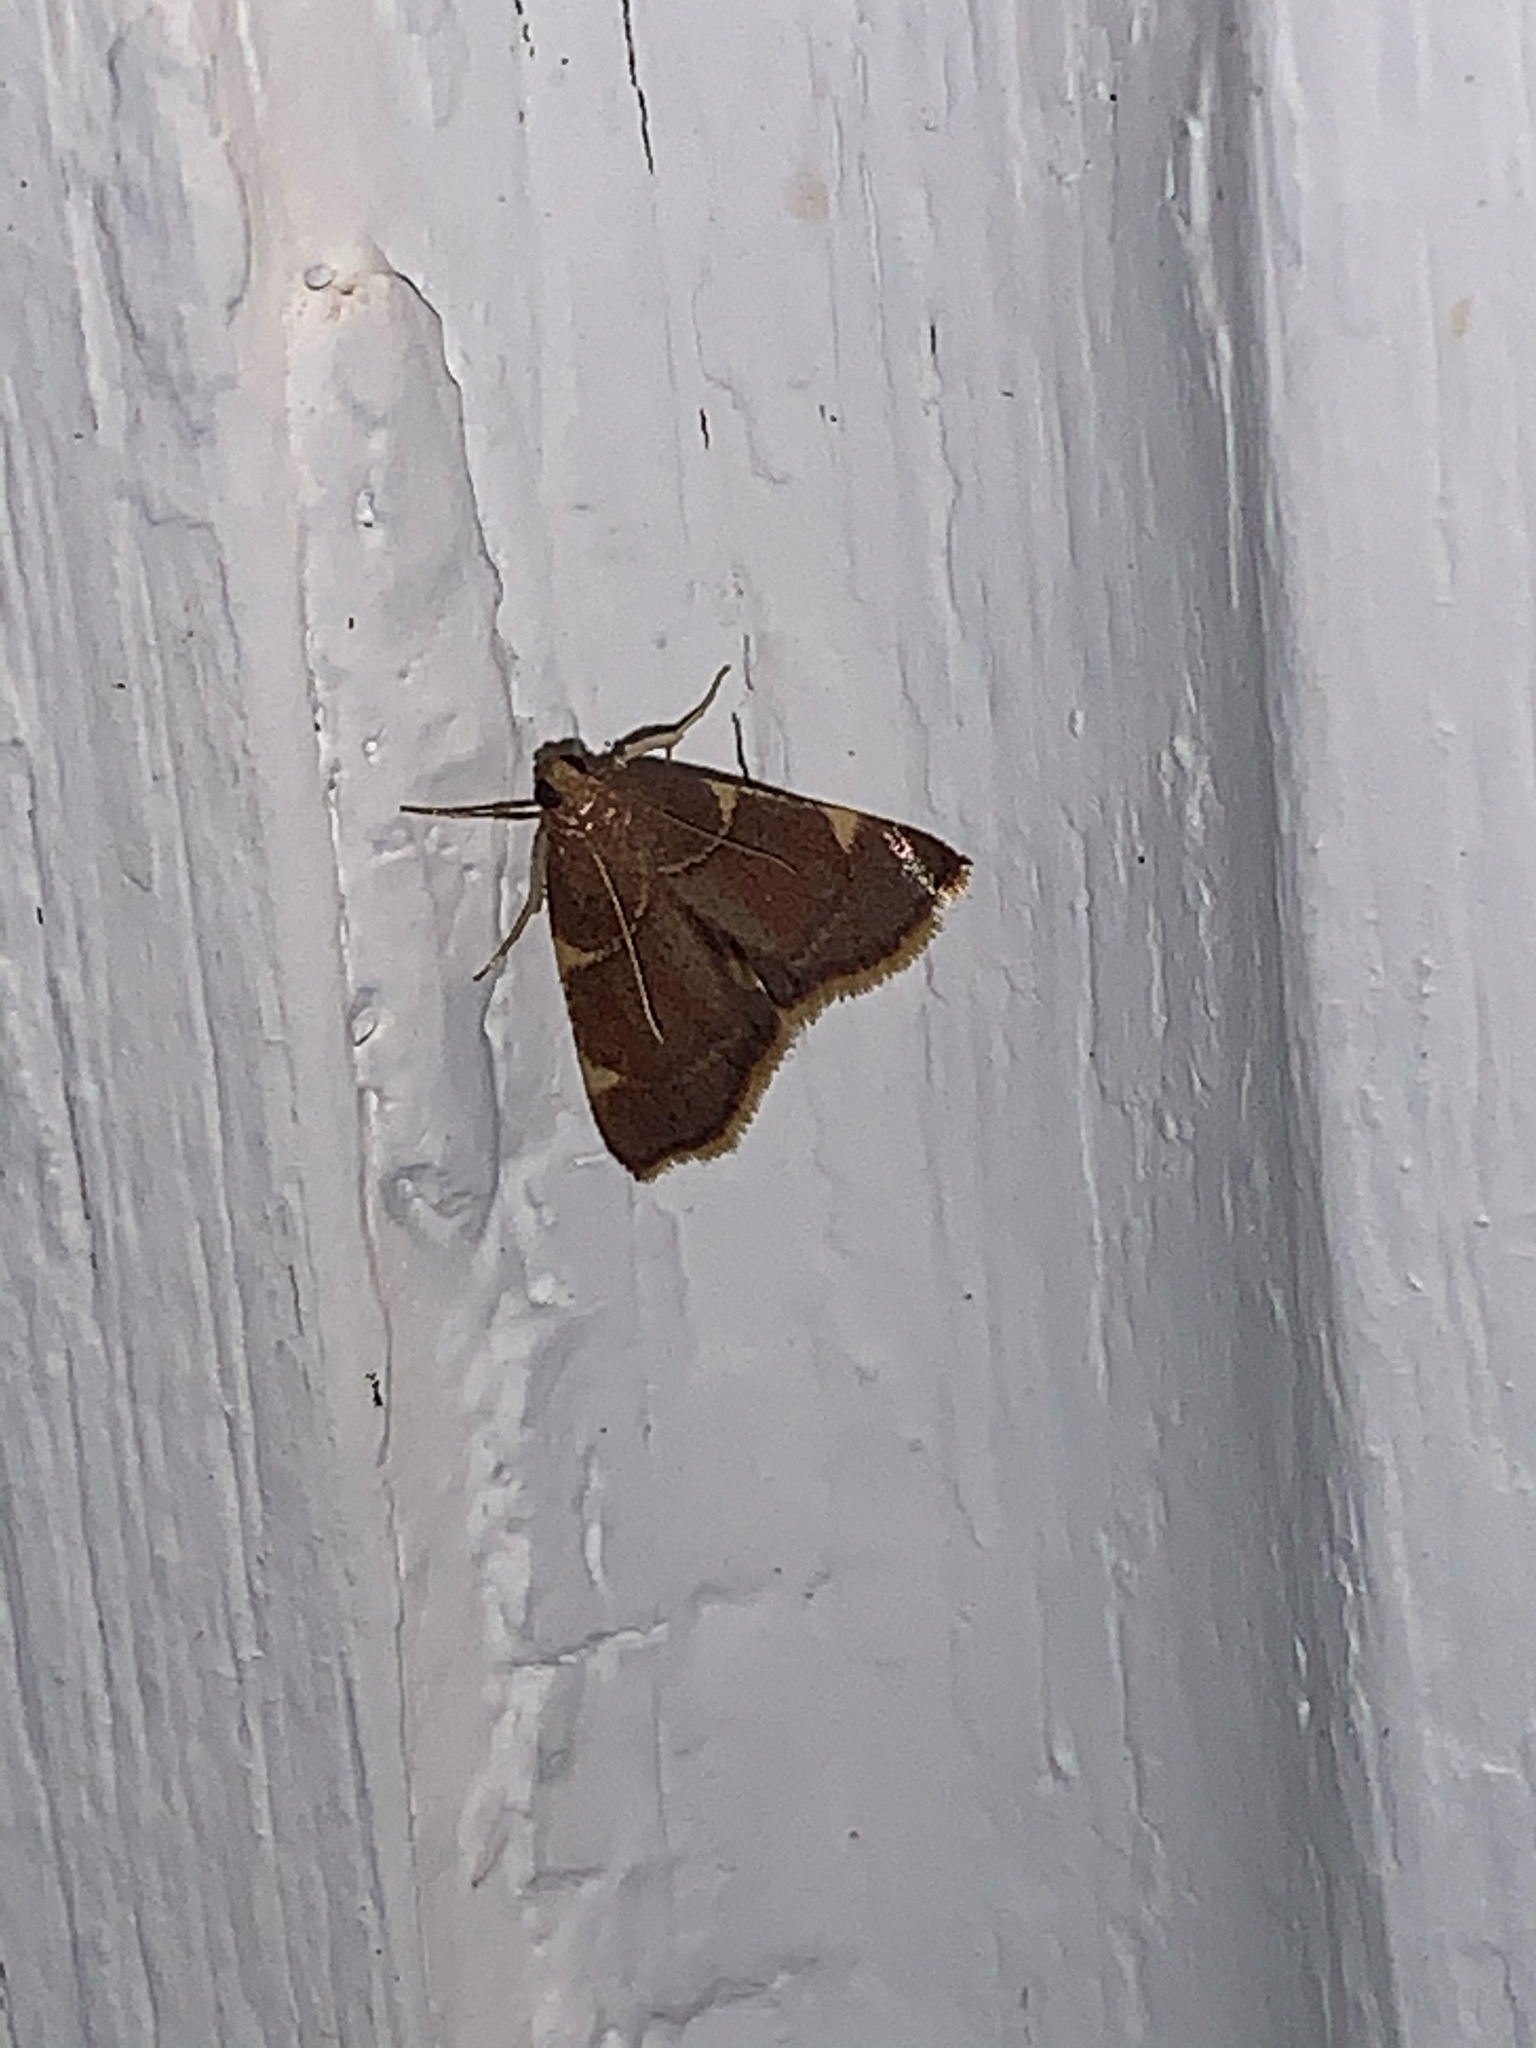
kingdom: Animalia
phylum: Arthropoda
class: Insecta
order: Lepidoptera
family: Pyralidae
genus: Hypsopygia
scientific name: Hypsopygia olinalis
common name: Yellow-fringed dolichomia moth
